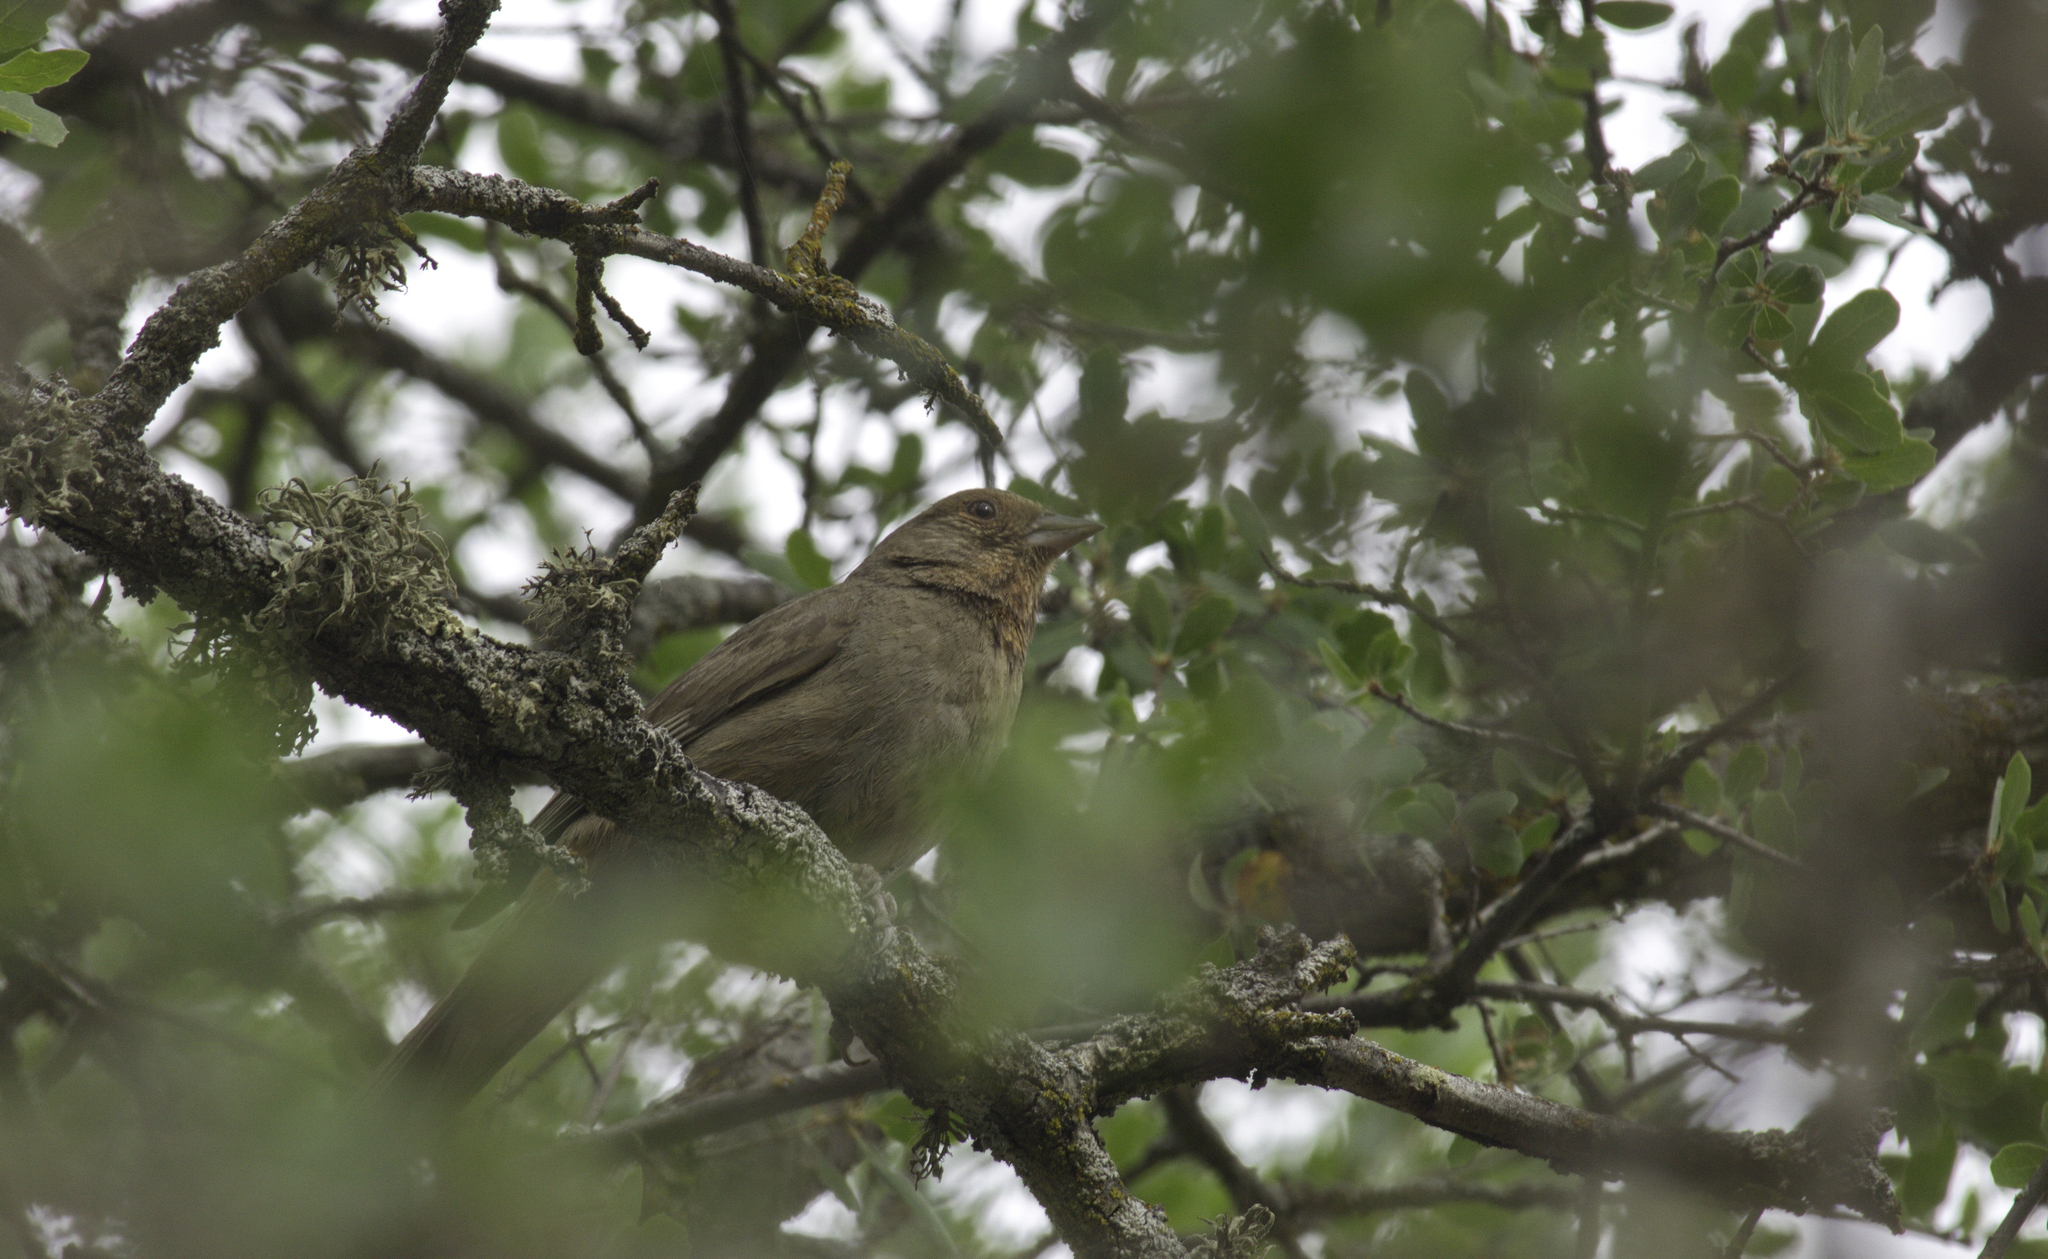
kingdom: Animalia
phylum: Chordata
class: Aves
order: Passeriformes
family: Passerellidae
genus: Melozone
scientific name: Melozone crissalis
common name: California towhee
